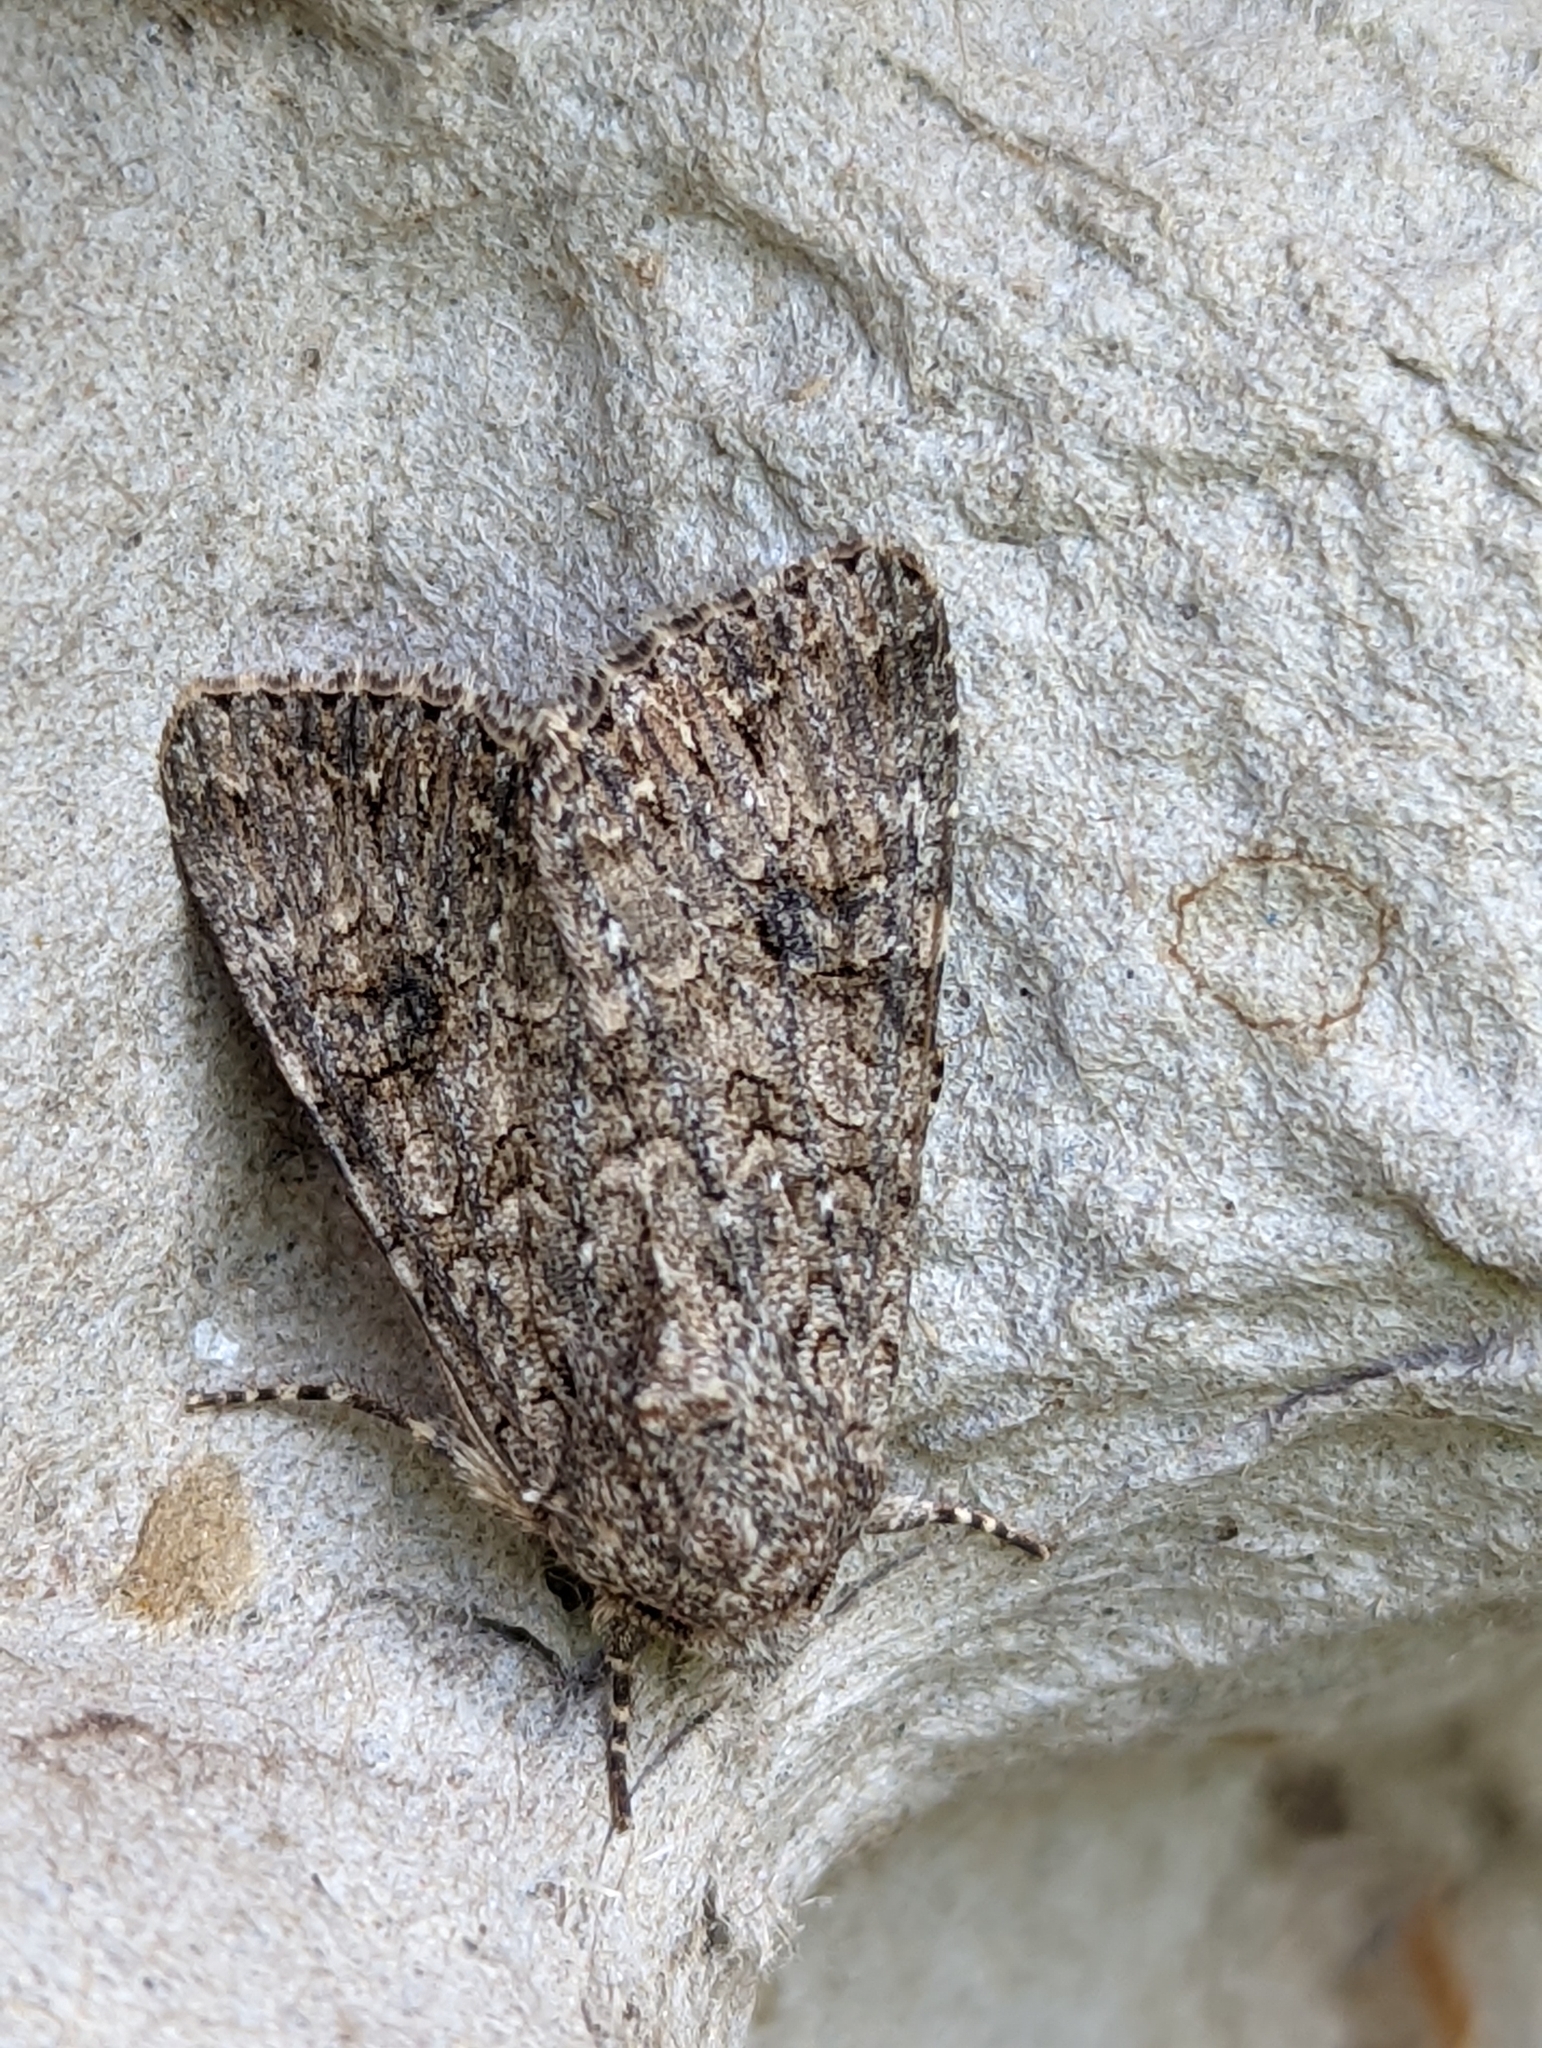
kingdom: Animalia
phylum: Arthropoda
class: Insecta
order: Lepidoptera
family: Noctuidae
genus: Anarta
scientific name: Anarta trifolii
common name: Clover cutworm moth
